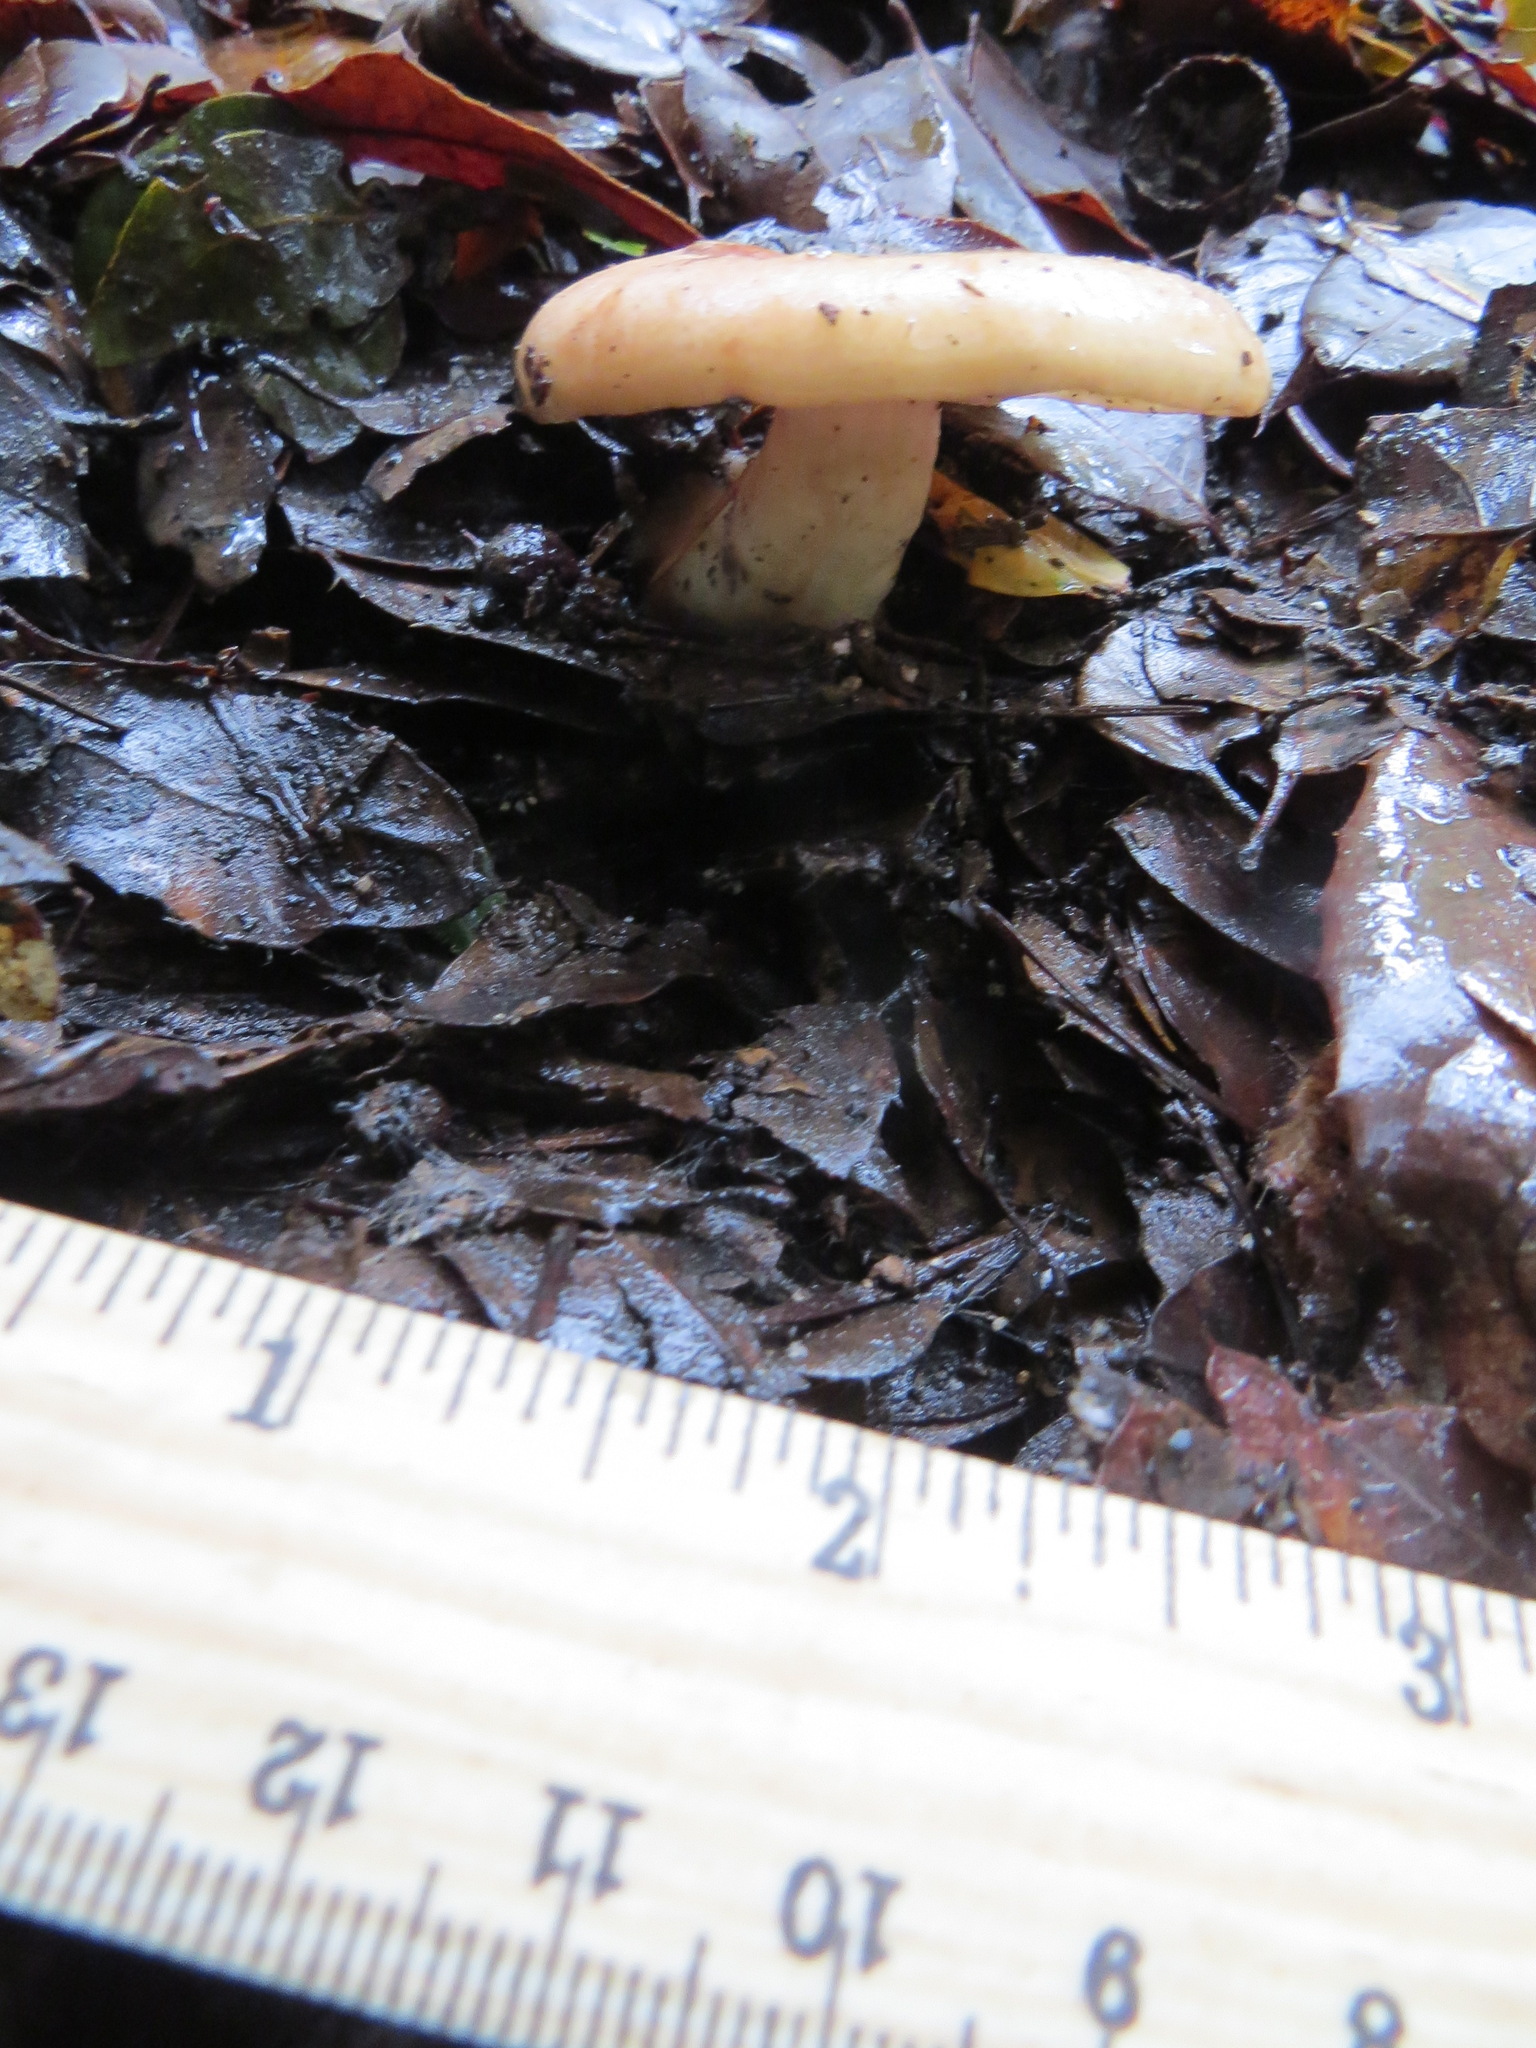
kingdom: Fungi
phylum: Basidiomycota
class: Agaricomycetes
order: Russulales
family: Russulaceae
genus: Lactarius
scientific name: Lactarius xanthogalactus
